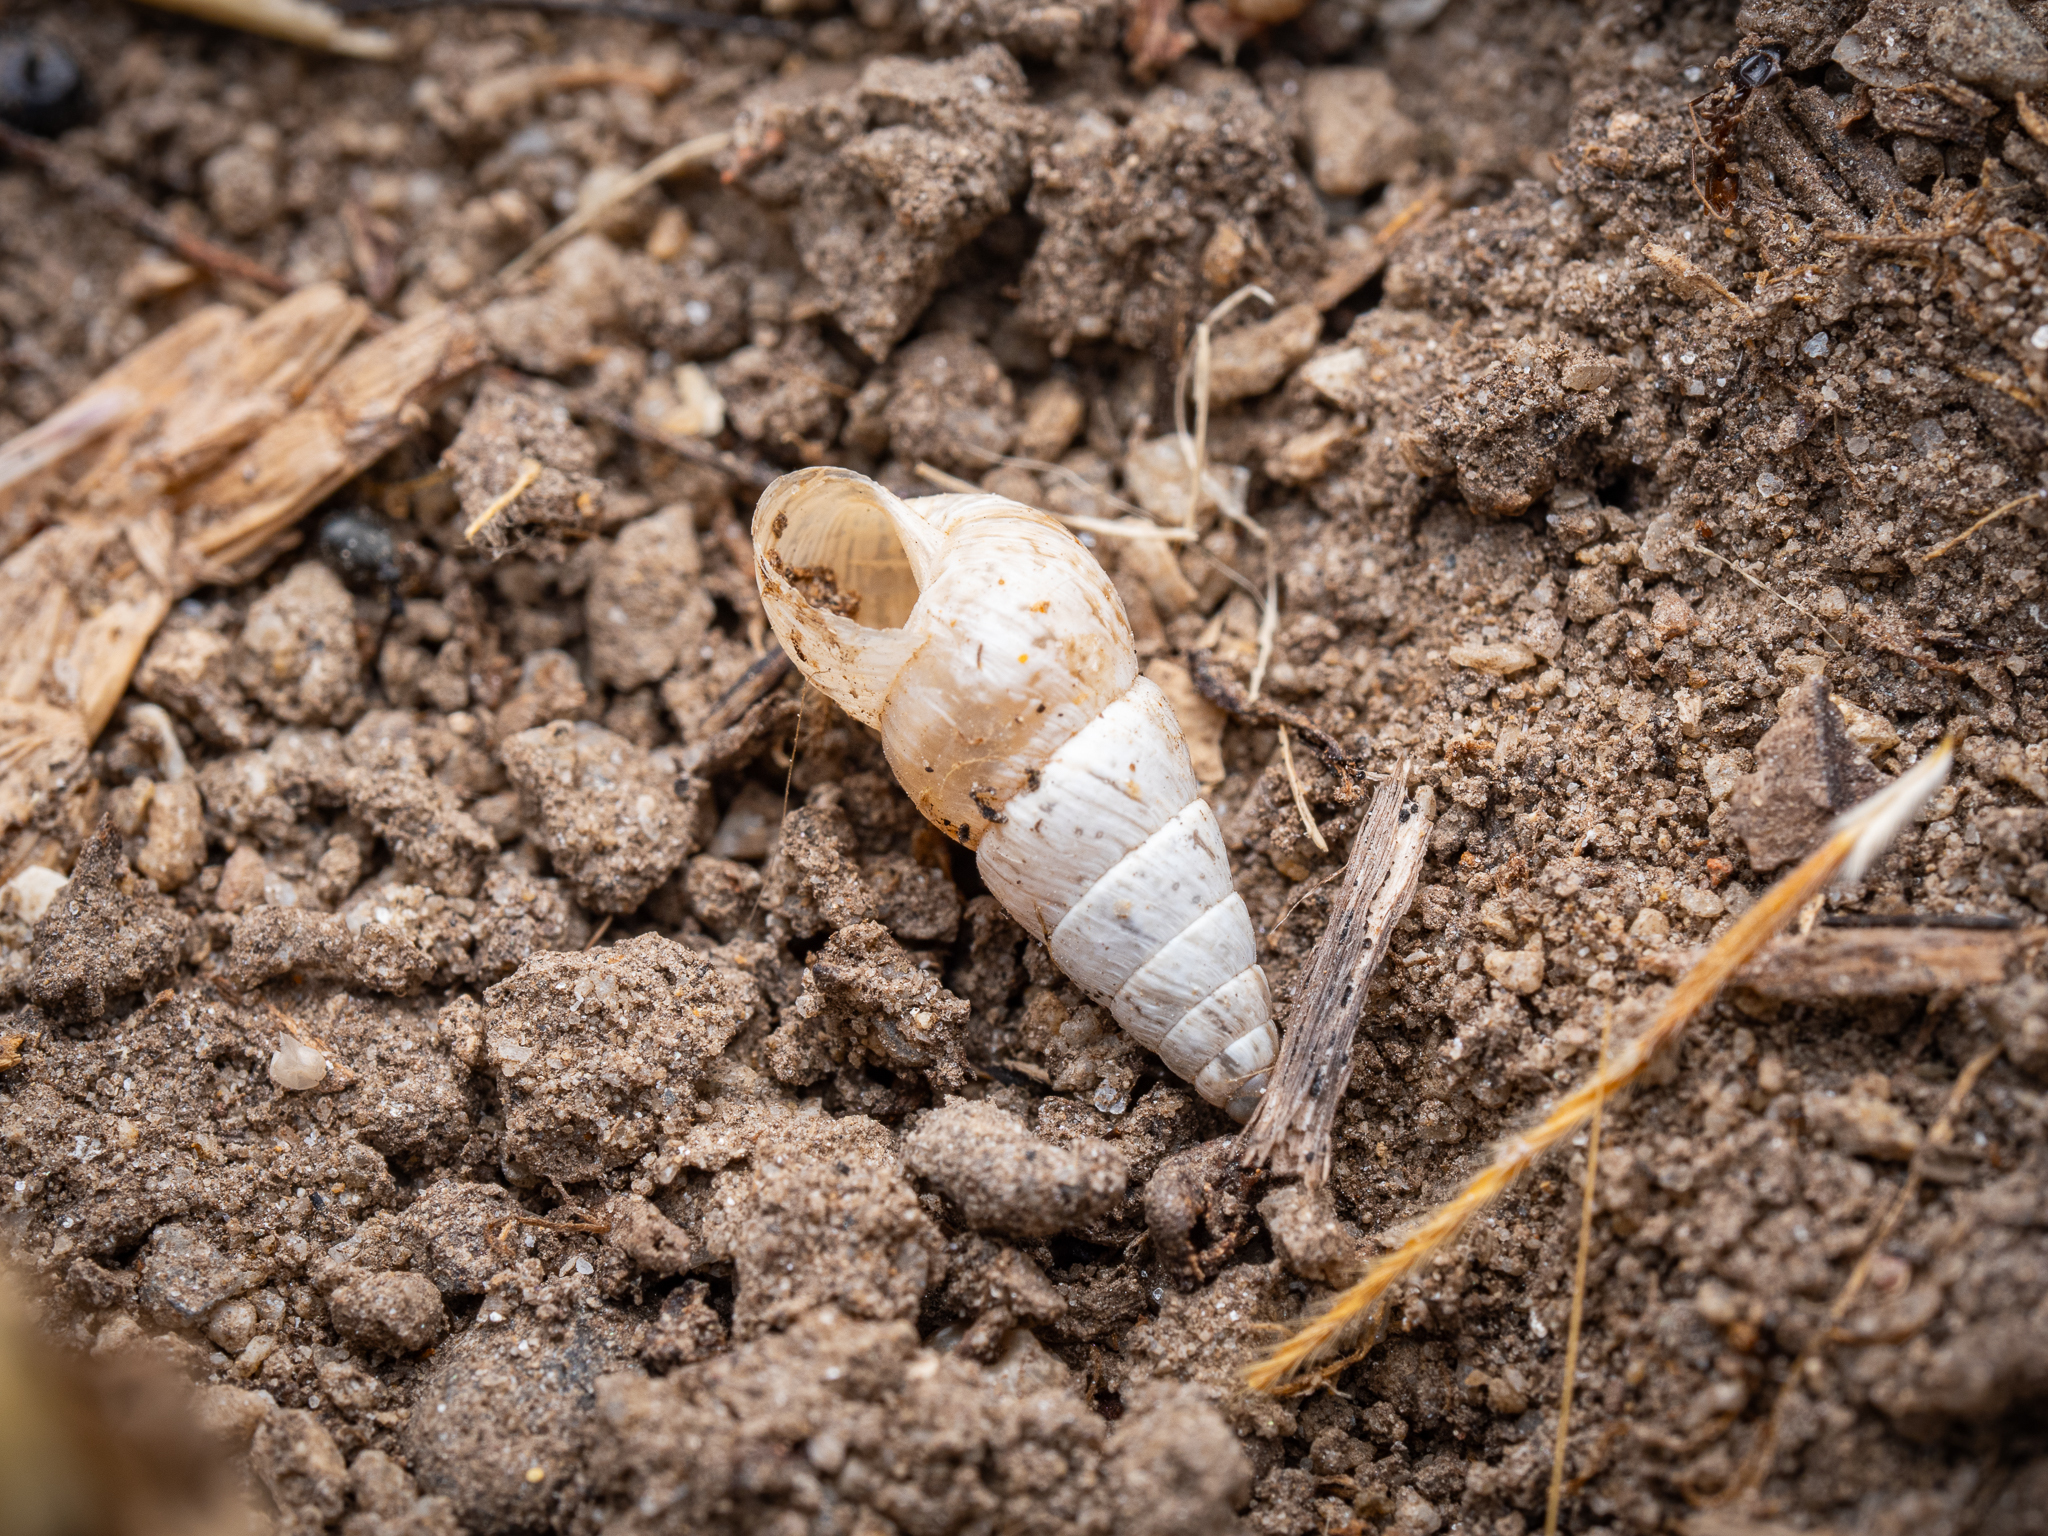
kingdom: Animalia
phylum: Mollusca
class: Gastropoda
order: Stylommatophora
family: Geomitridae
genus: Cochlicella
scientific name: Cochlicella acuta
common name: Pointed snail
